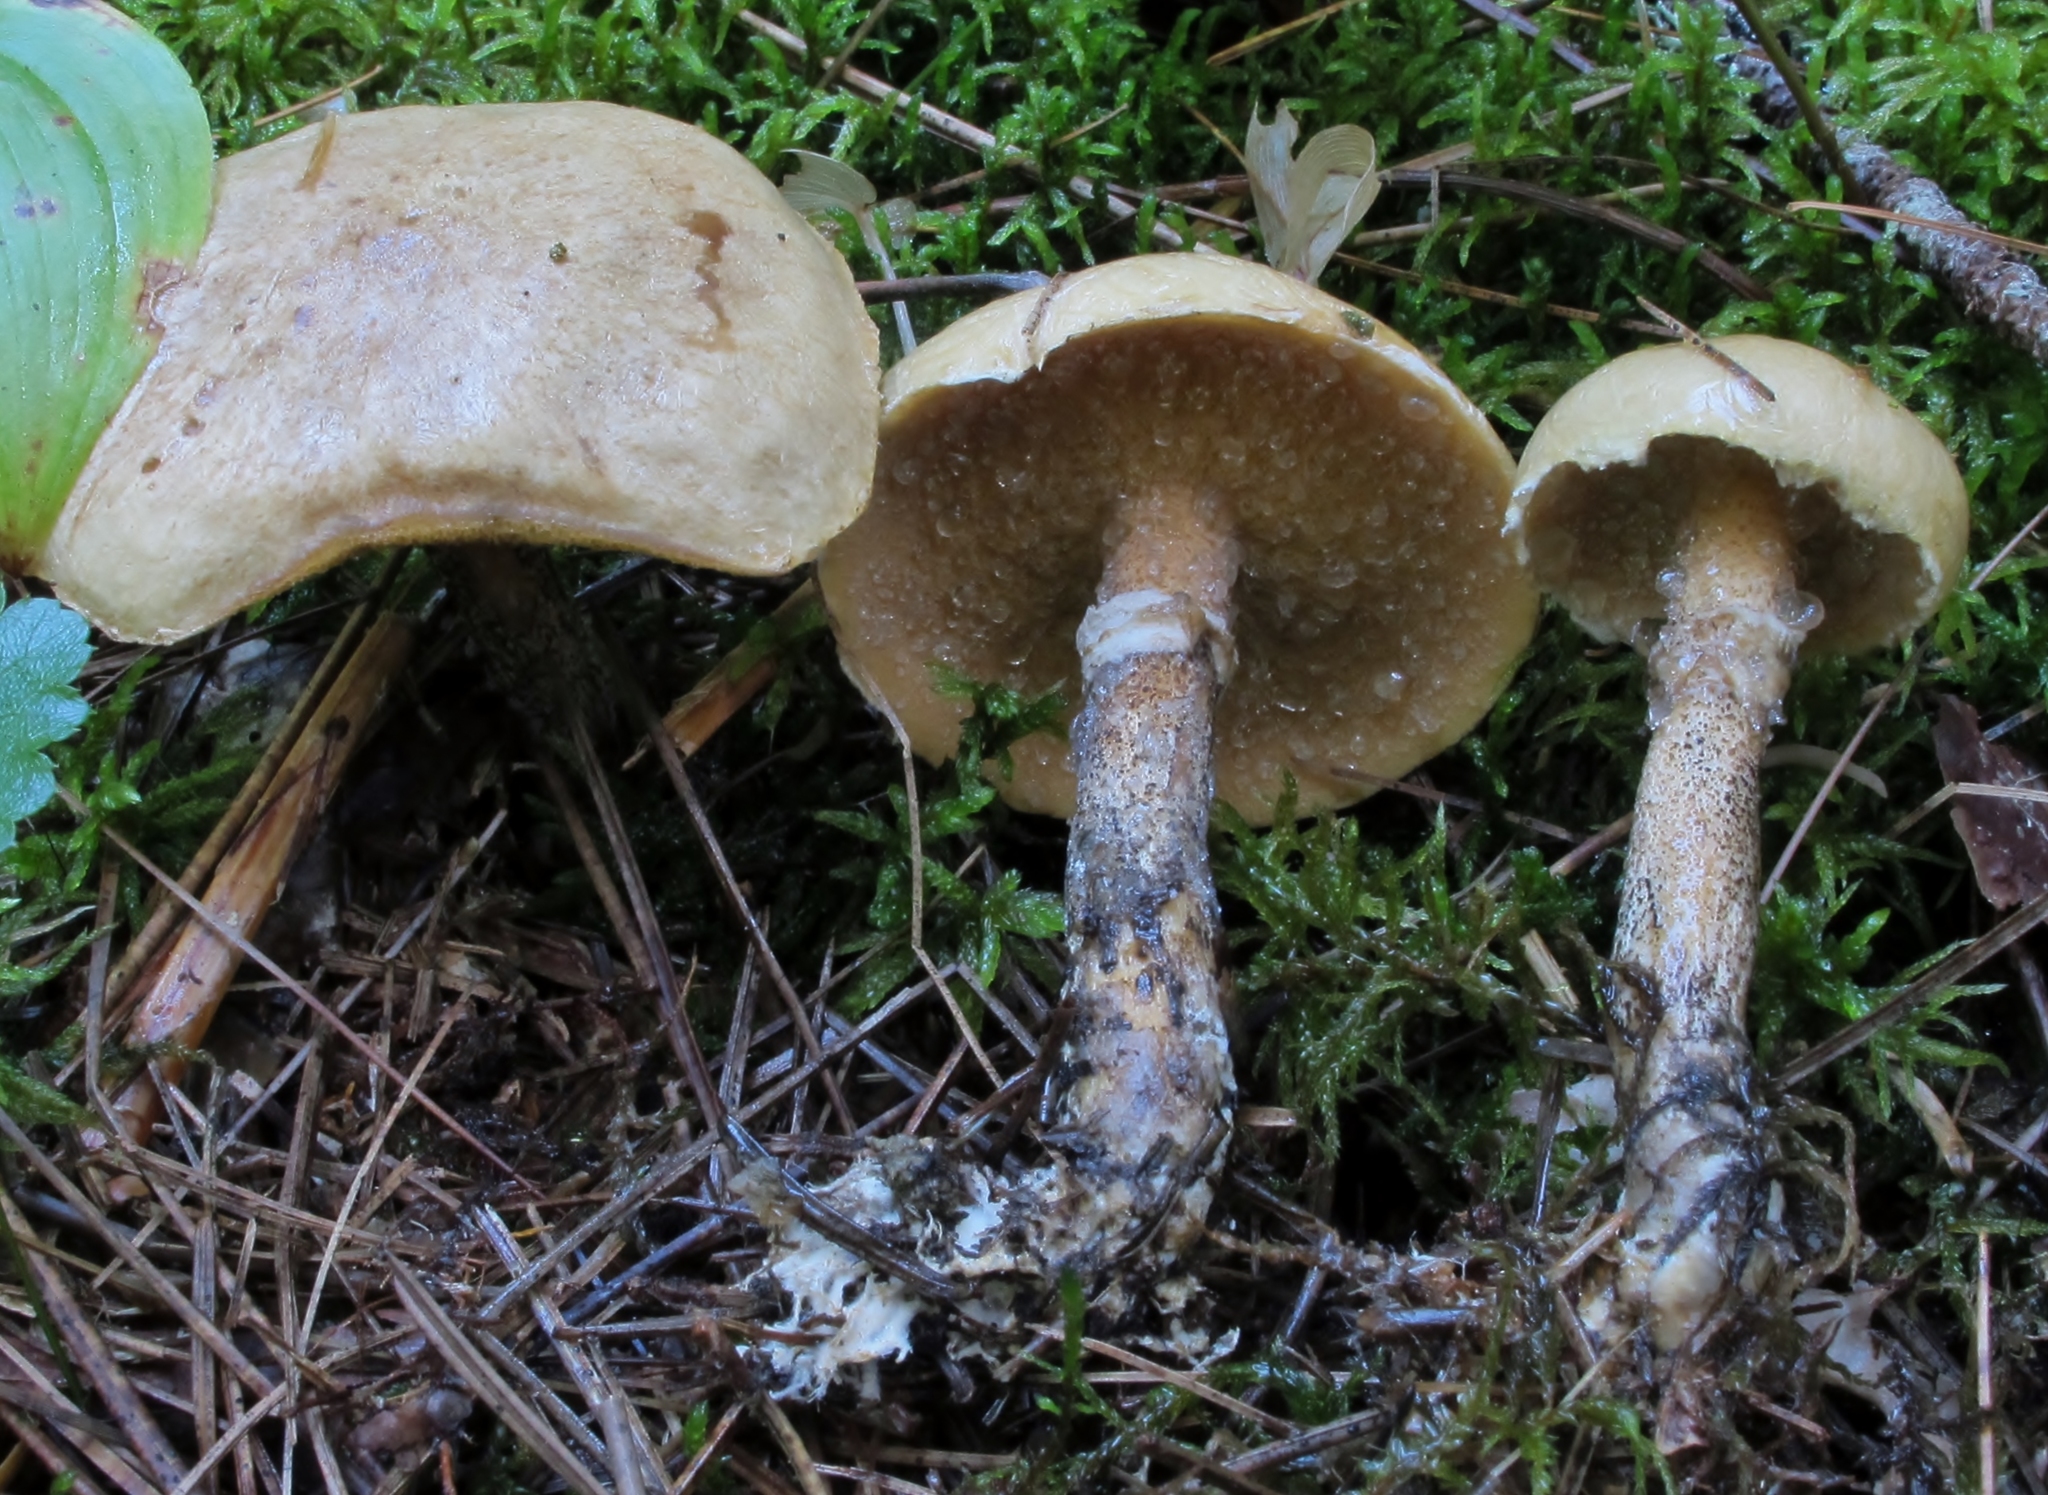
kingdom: Fungi
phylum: Basidiomycota
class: Agaricomycetes
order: Boletales
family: Suillaceae
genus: Suillus
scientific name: Suillus acidus
